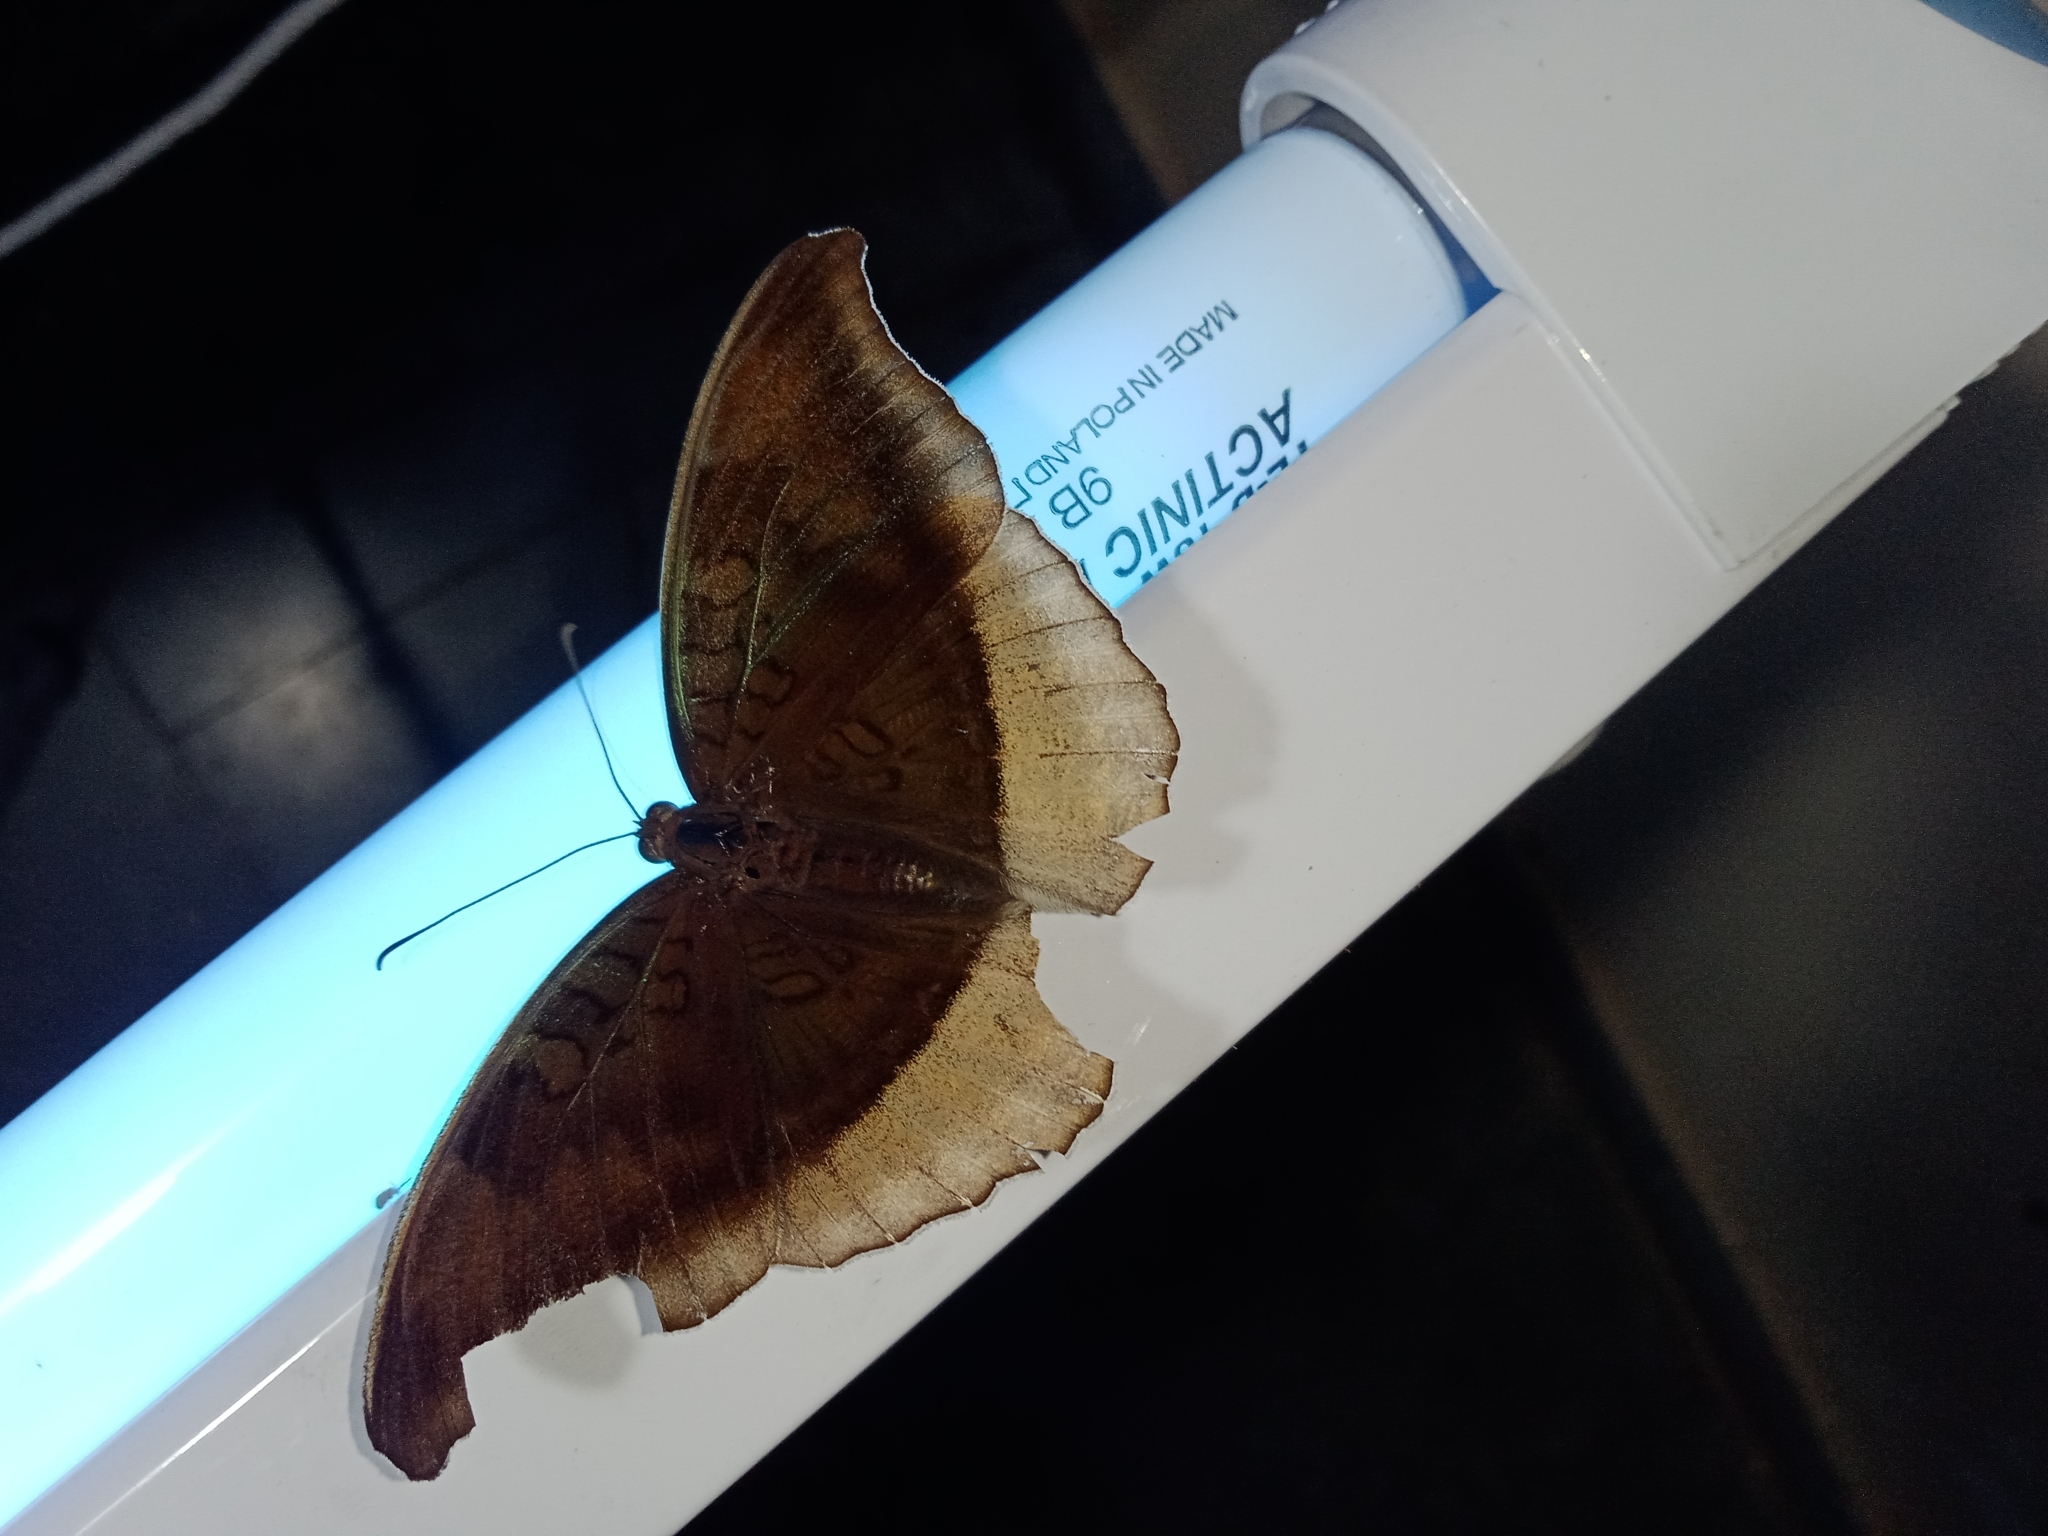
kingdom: Animalia
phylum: Arthropoda
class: Insecta
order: Lepidoptera
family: Nymphalidae
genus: Tanaecia
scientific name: Tanaecia lepidea
